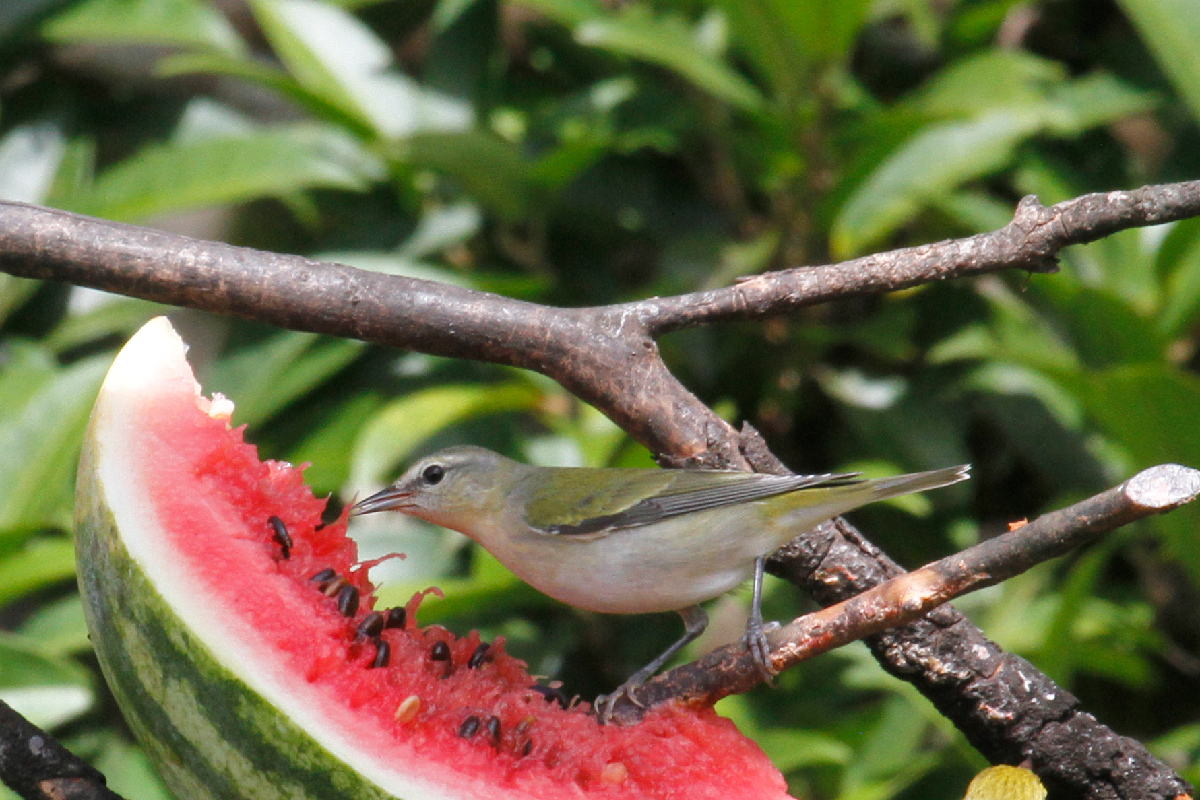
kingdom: Animalia
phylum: Chordata
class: Aves
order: Passeriformes
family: Parulidae
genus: Leiothlypis
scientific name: Leiothlypis peregrina
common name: Tennessee warbler
